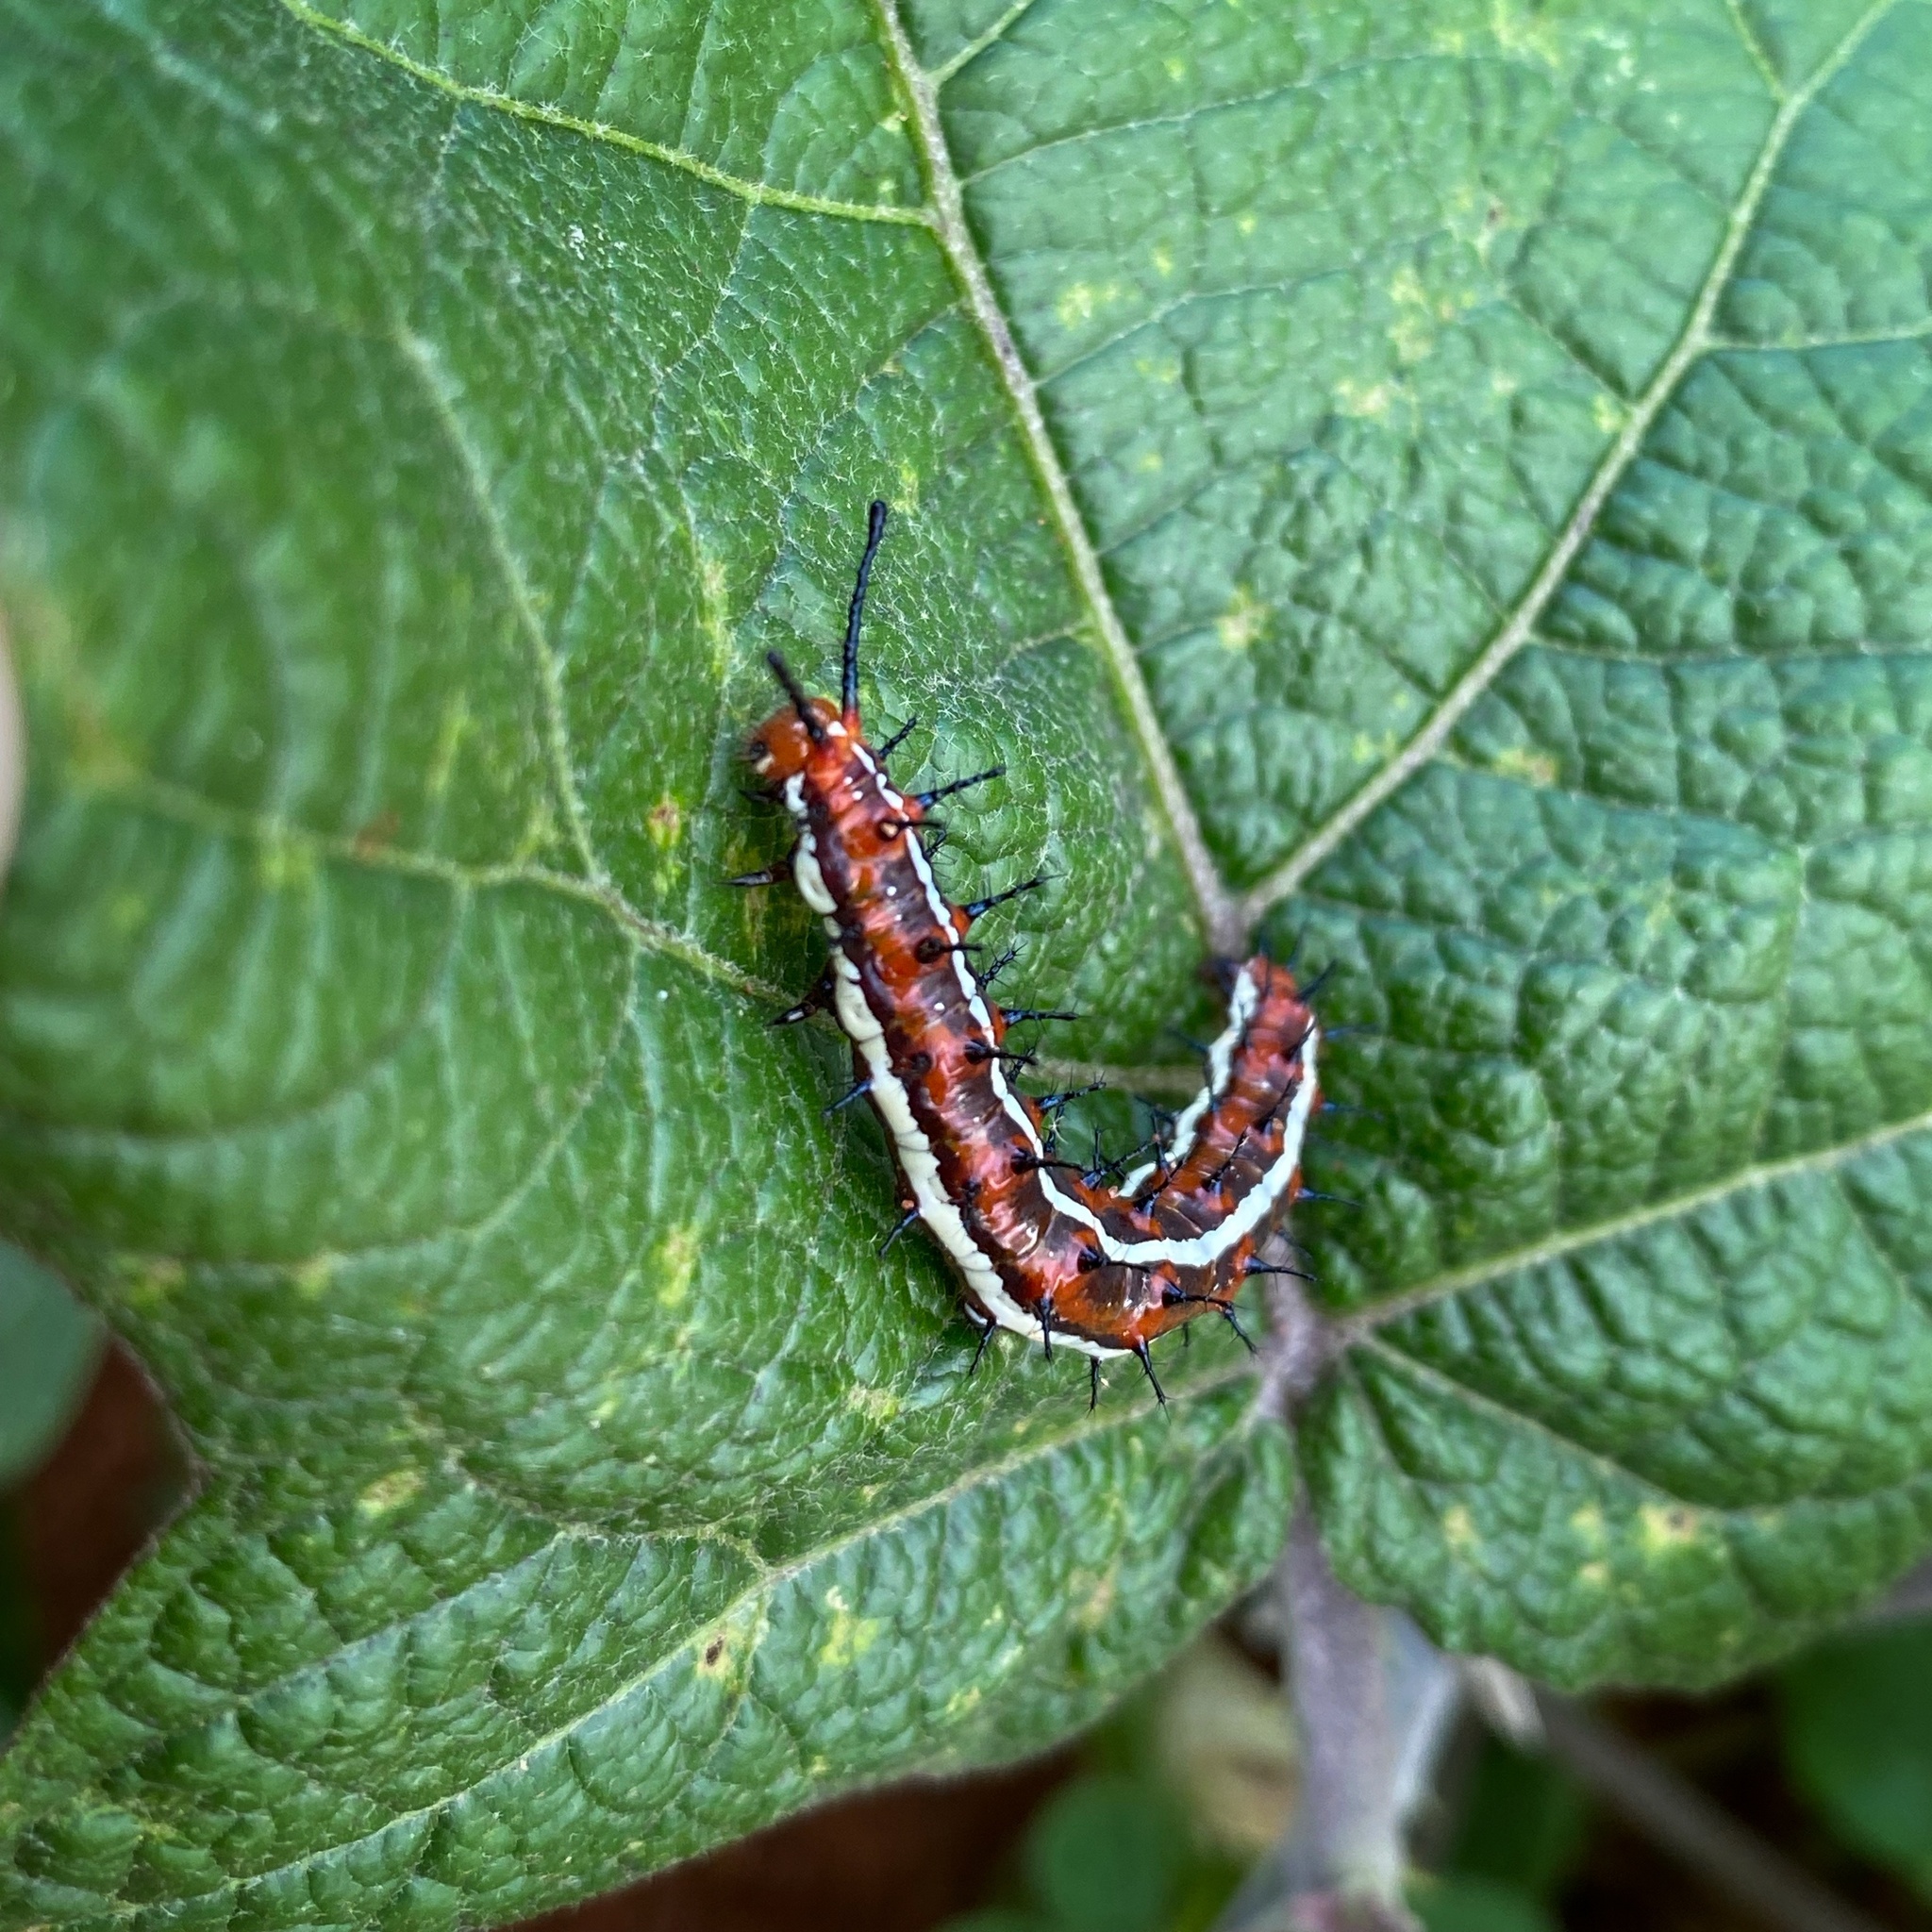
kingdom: Animalia
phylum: Arthropoda
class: Insecta
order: Lepidoptera
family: Nymphalidae
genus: Euptoieta
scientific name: Euptoieta hegesia
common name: Mexican fritillary
